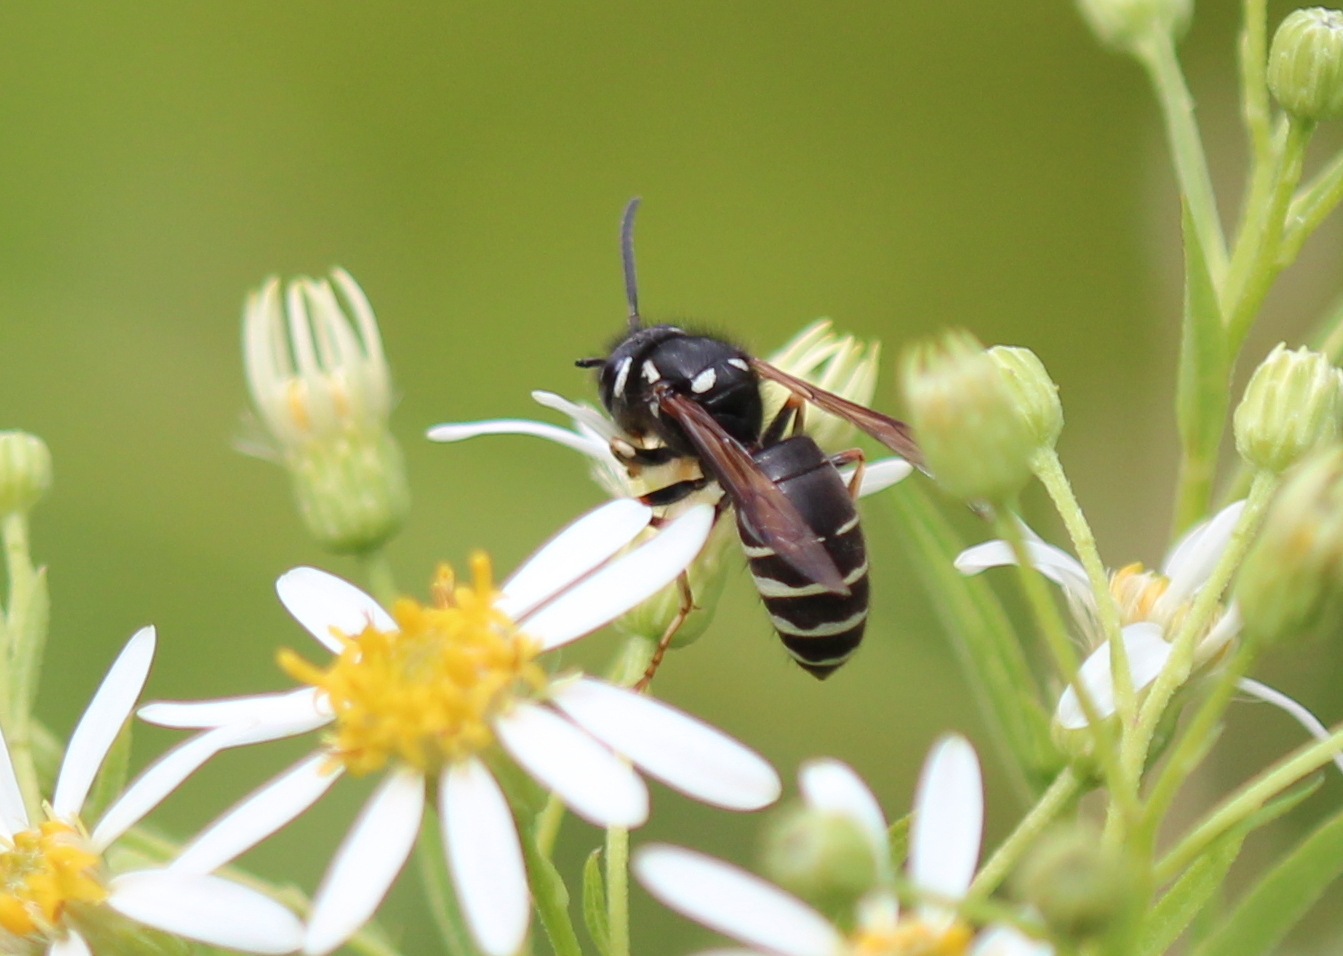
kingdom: Animalia
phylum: Arthropoda
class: Insecta
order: Hymenoptera
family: Vespidae
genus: Vespula
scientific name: Vespula consobrina
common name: Blackjacket
